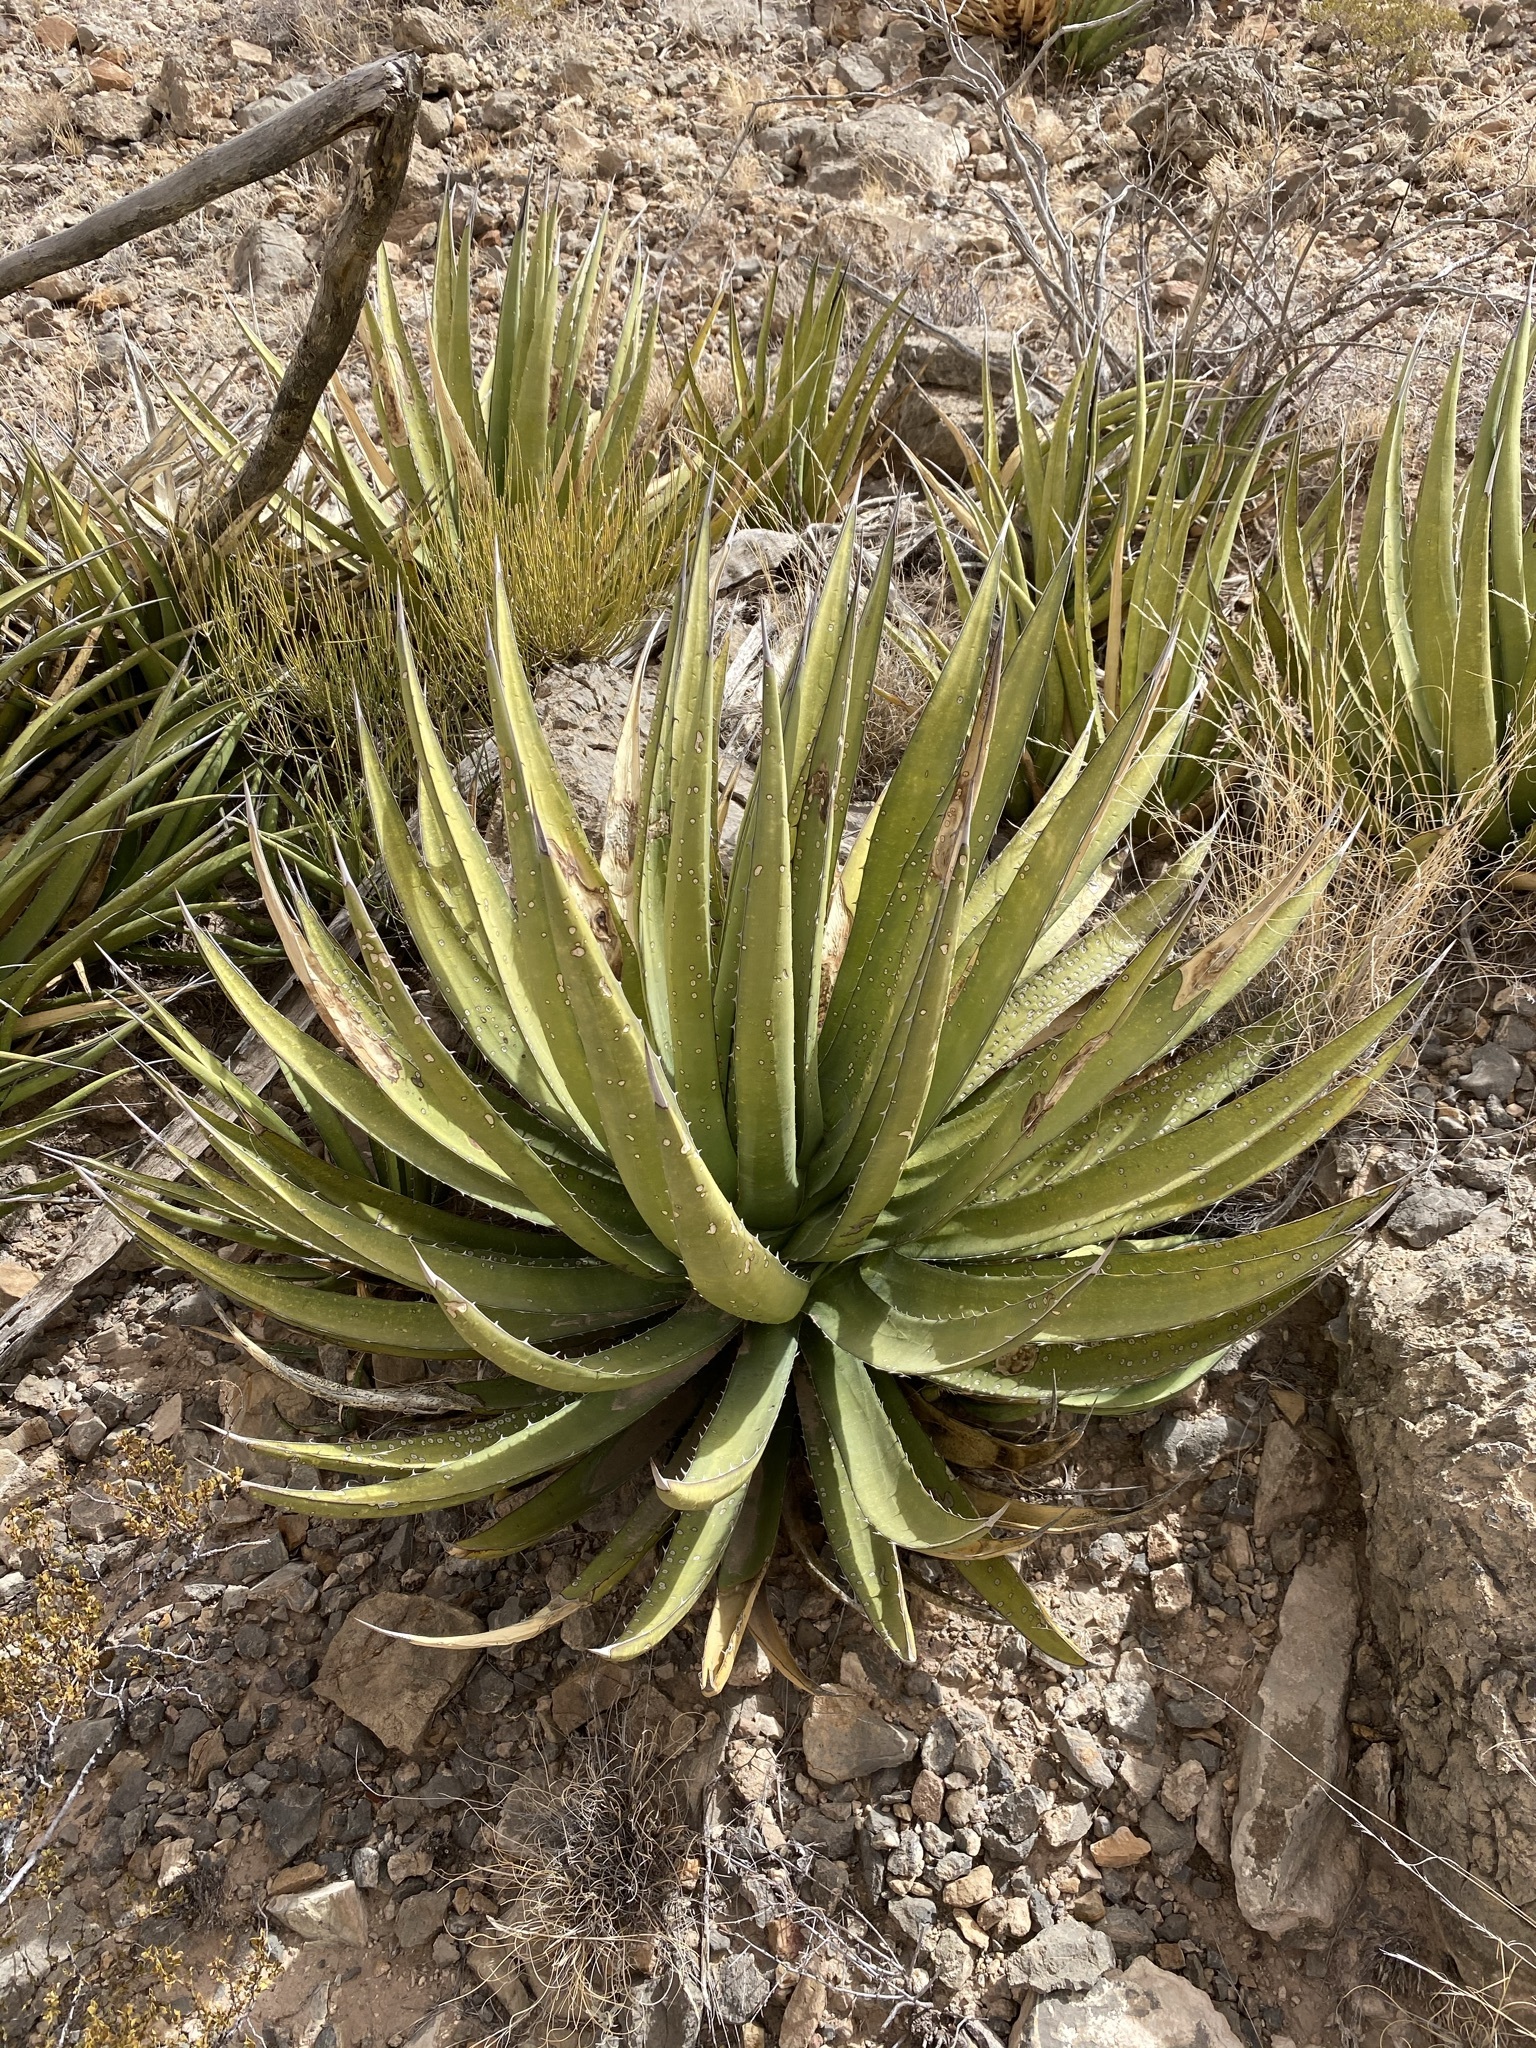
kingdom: Plantae
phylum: Tracheophyta
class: Liliopsida
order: Asparagales
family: Asparagaceae
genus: Agave
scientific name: Agave lechuguilla
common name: Lecheguilla agave
